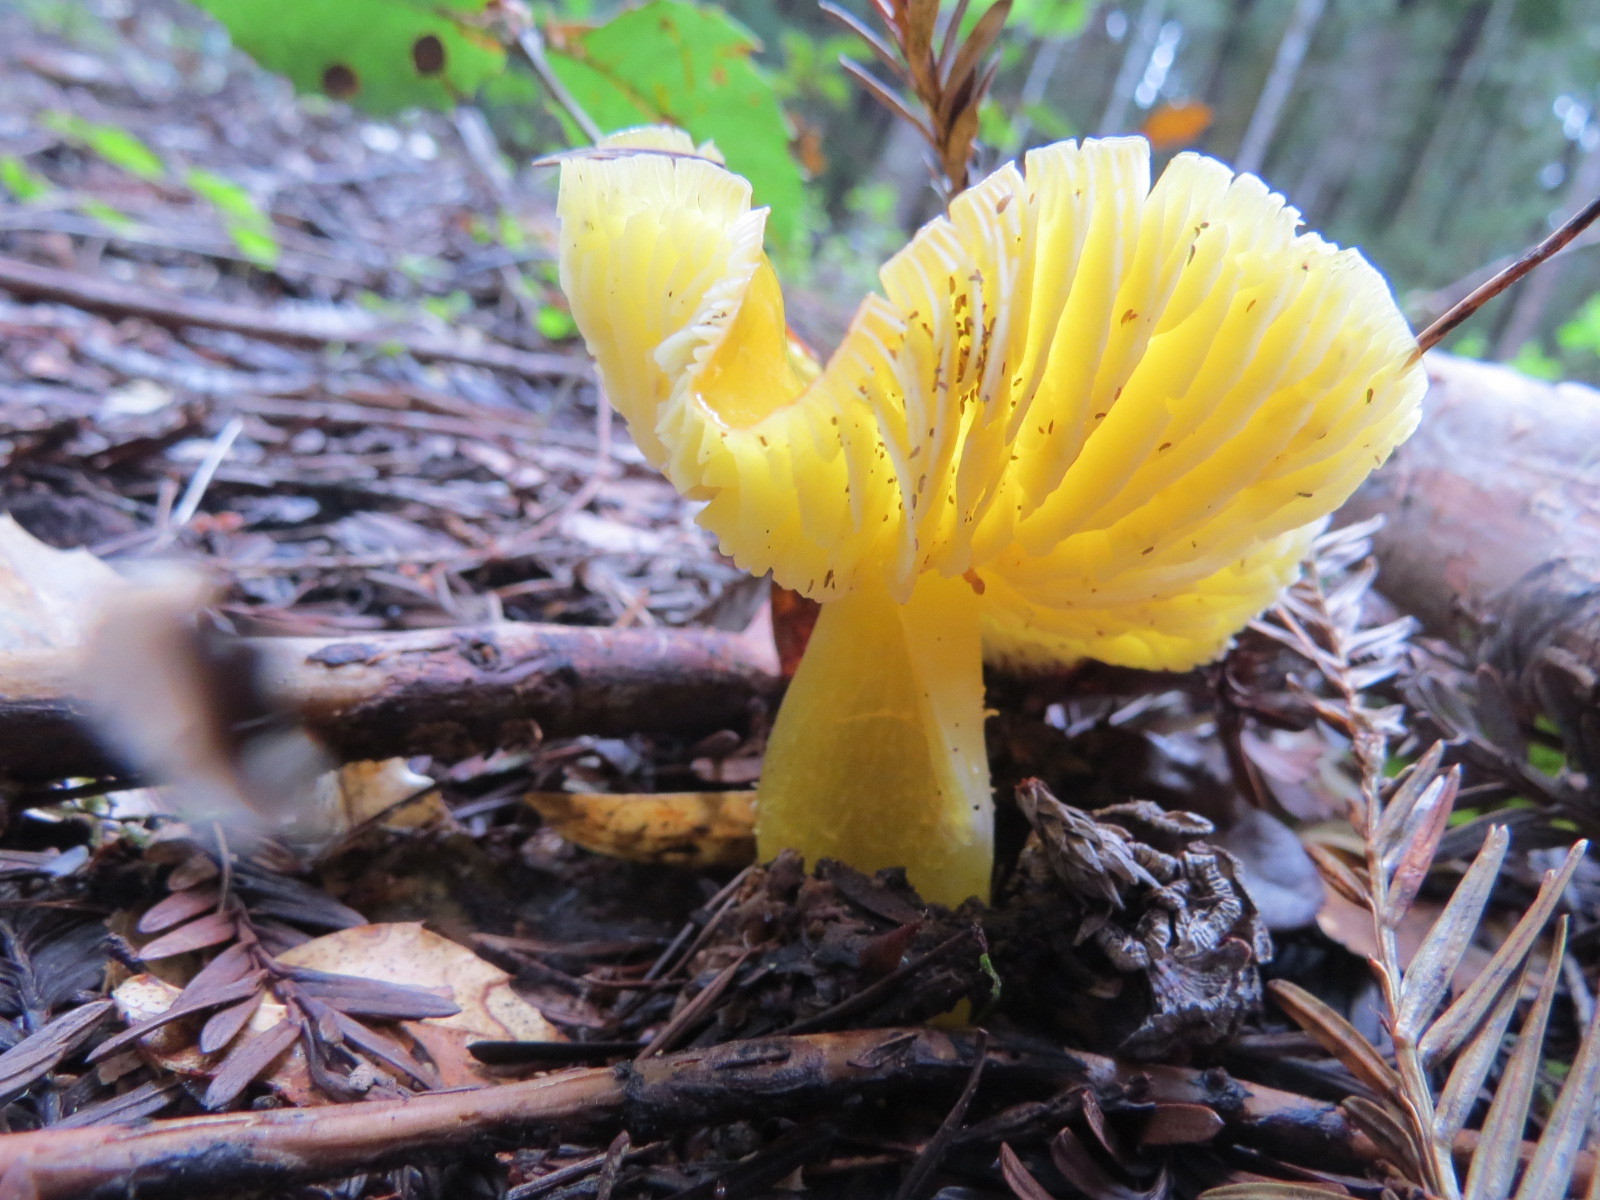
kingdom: Fungi
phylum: Basidiomycota
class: Agaricomycetes
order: Agaricales
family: Hygrophoraceae
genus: Hygrocybe
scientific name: Hygrocybe flavescens
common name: Golden waxy cap
